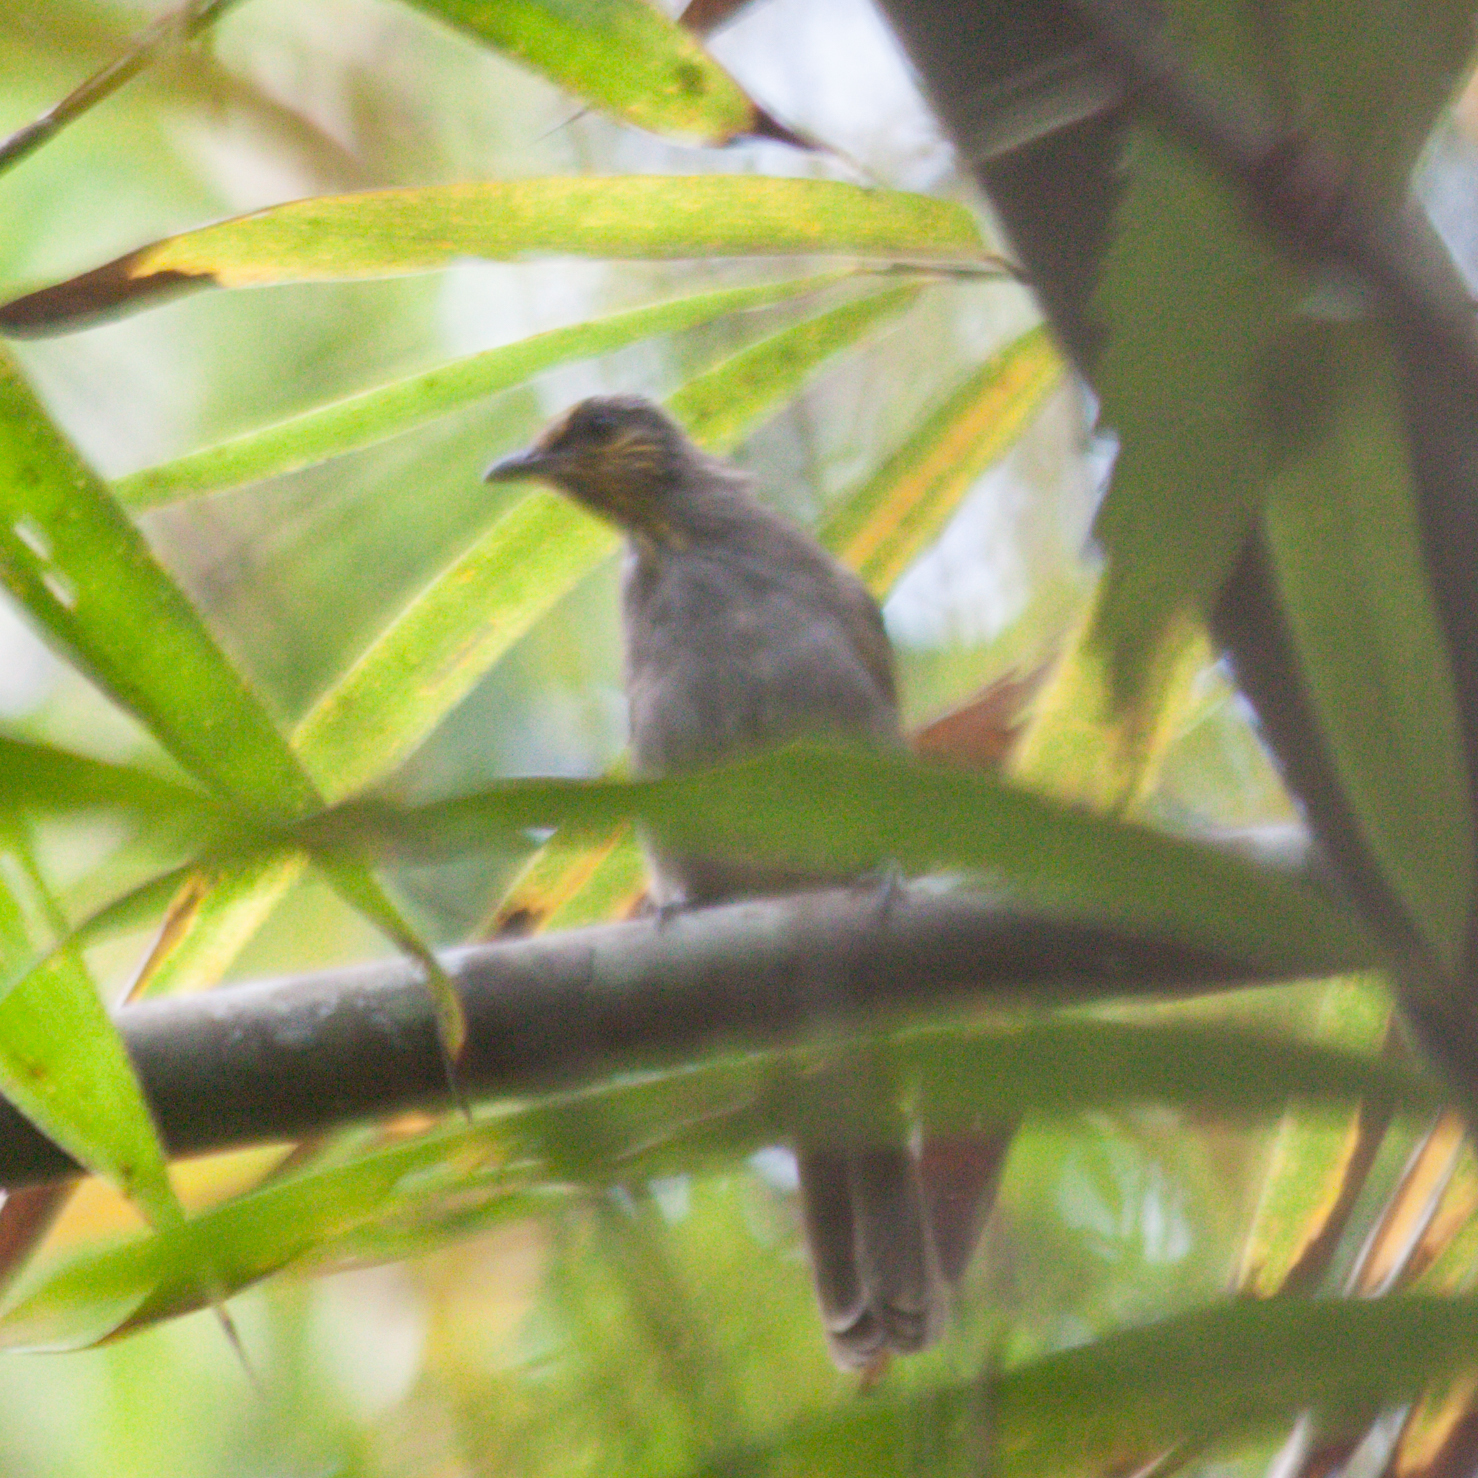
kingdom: Animalia
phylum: Chordata
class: Aves
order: Passeriformes
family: Pycnonotidae
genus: Pycnonotus
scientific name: Pycnonotus finlaysoni
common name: Stripe-throated bulbul
